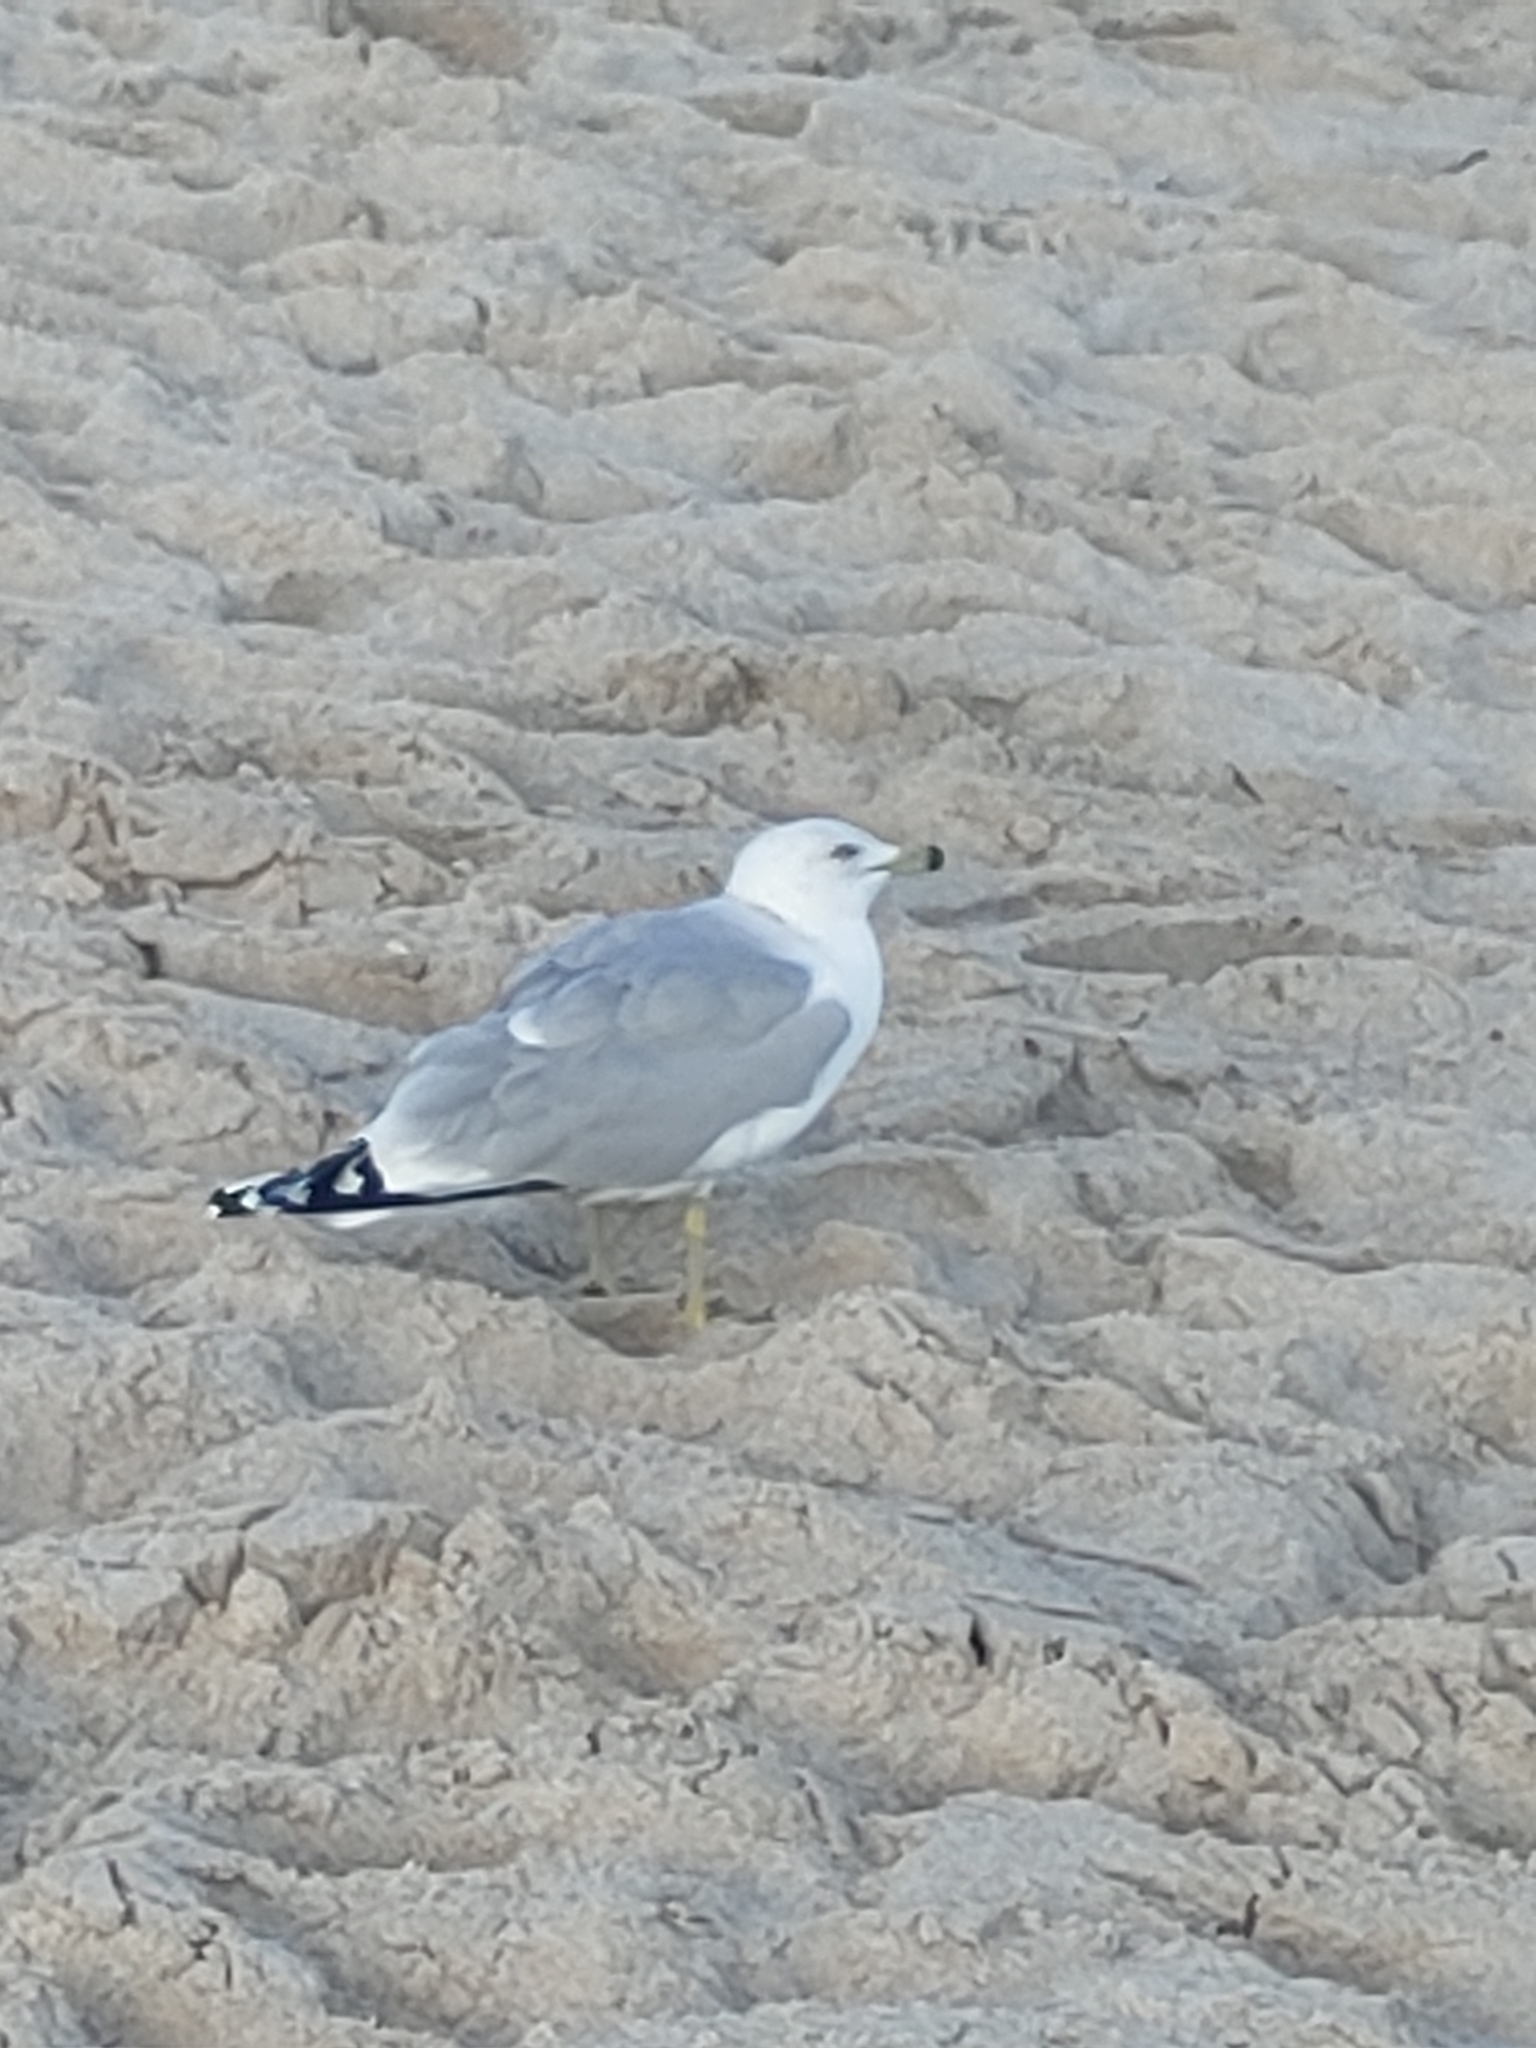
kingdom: Animalia
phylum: Chordata
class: Aves
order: Charadriiformes
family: Laridae
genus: Larus
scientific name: Larus delawarensis
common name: Ring-billed gull
